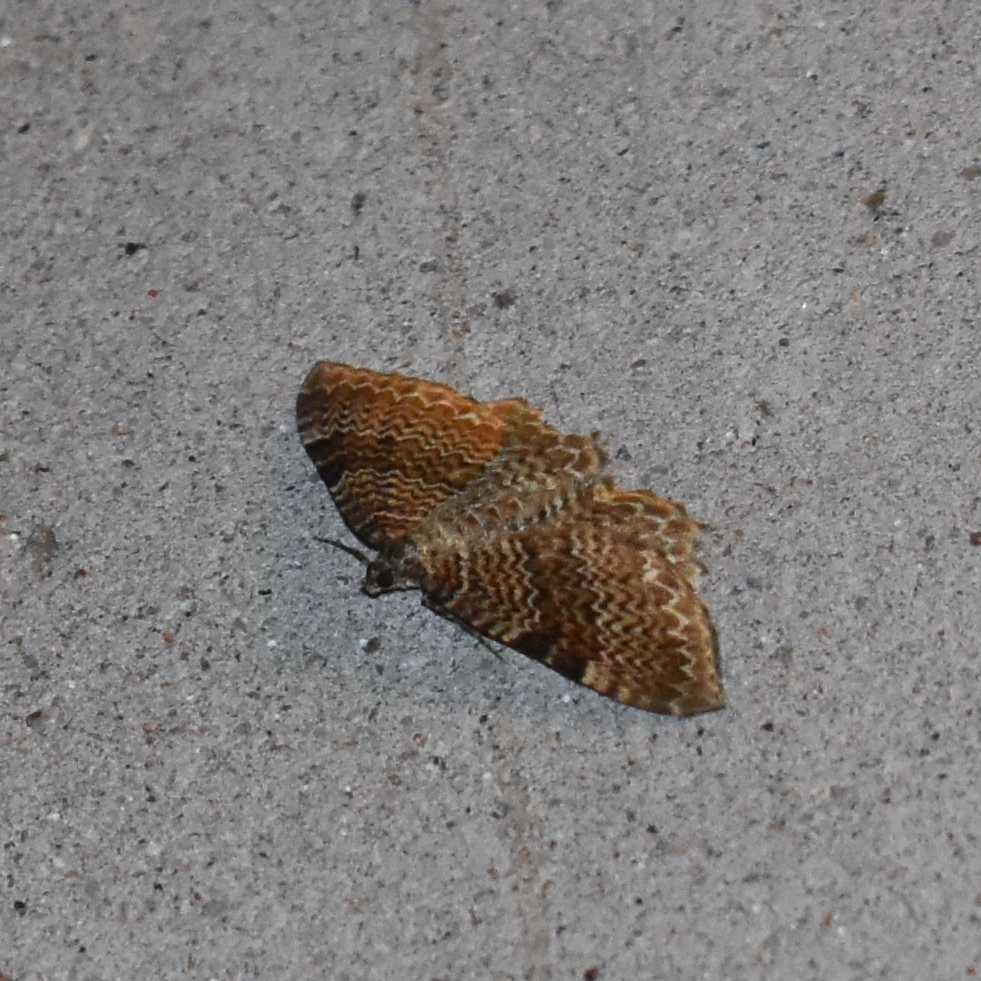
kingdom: Animalia
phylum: Arthropoda
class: Insecta
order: Lepidoptera
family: Geometridae
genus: Rheumaptera
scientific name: Rheumaptera undulata
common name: Scallop shell
